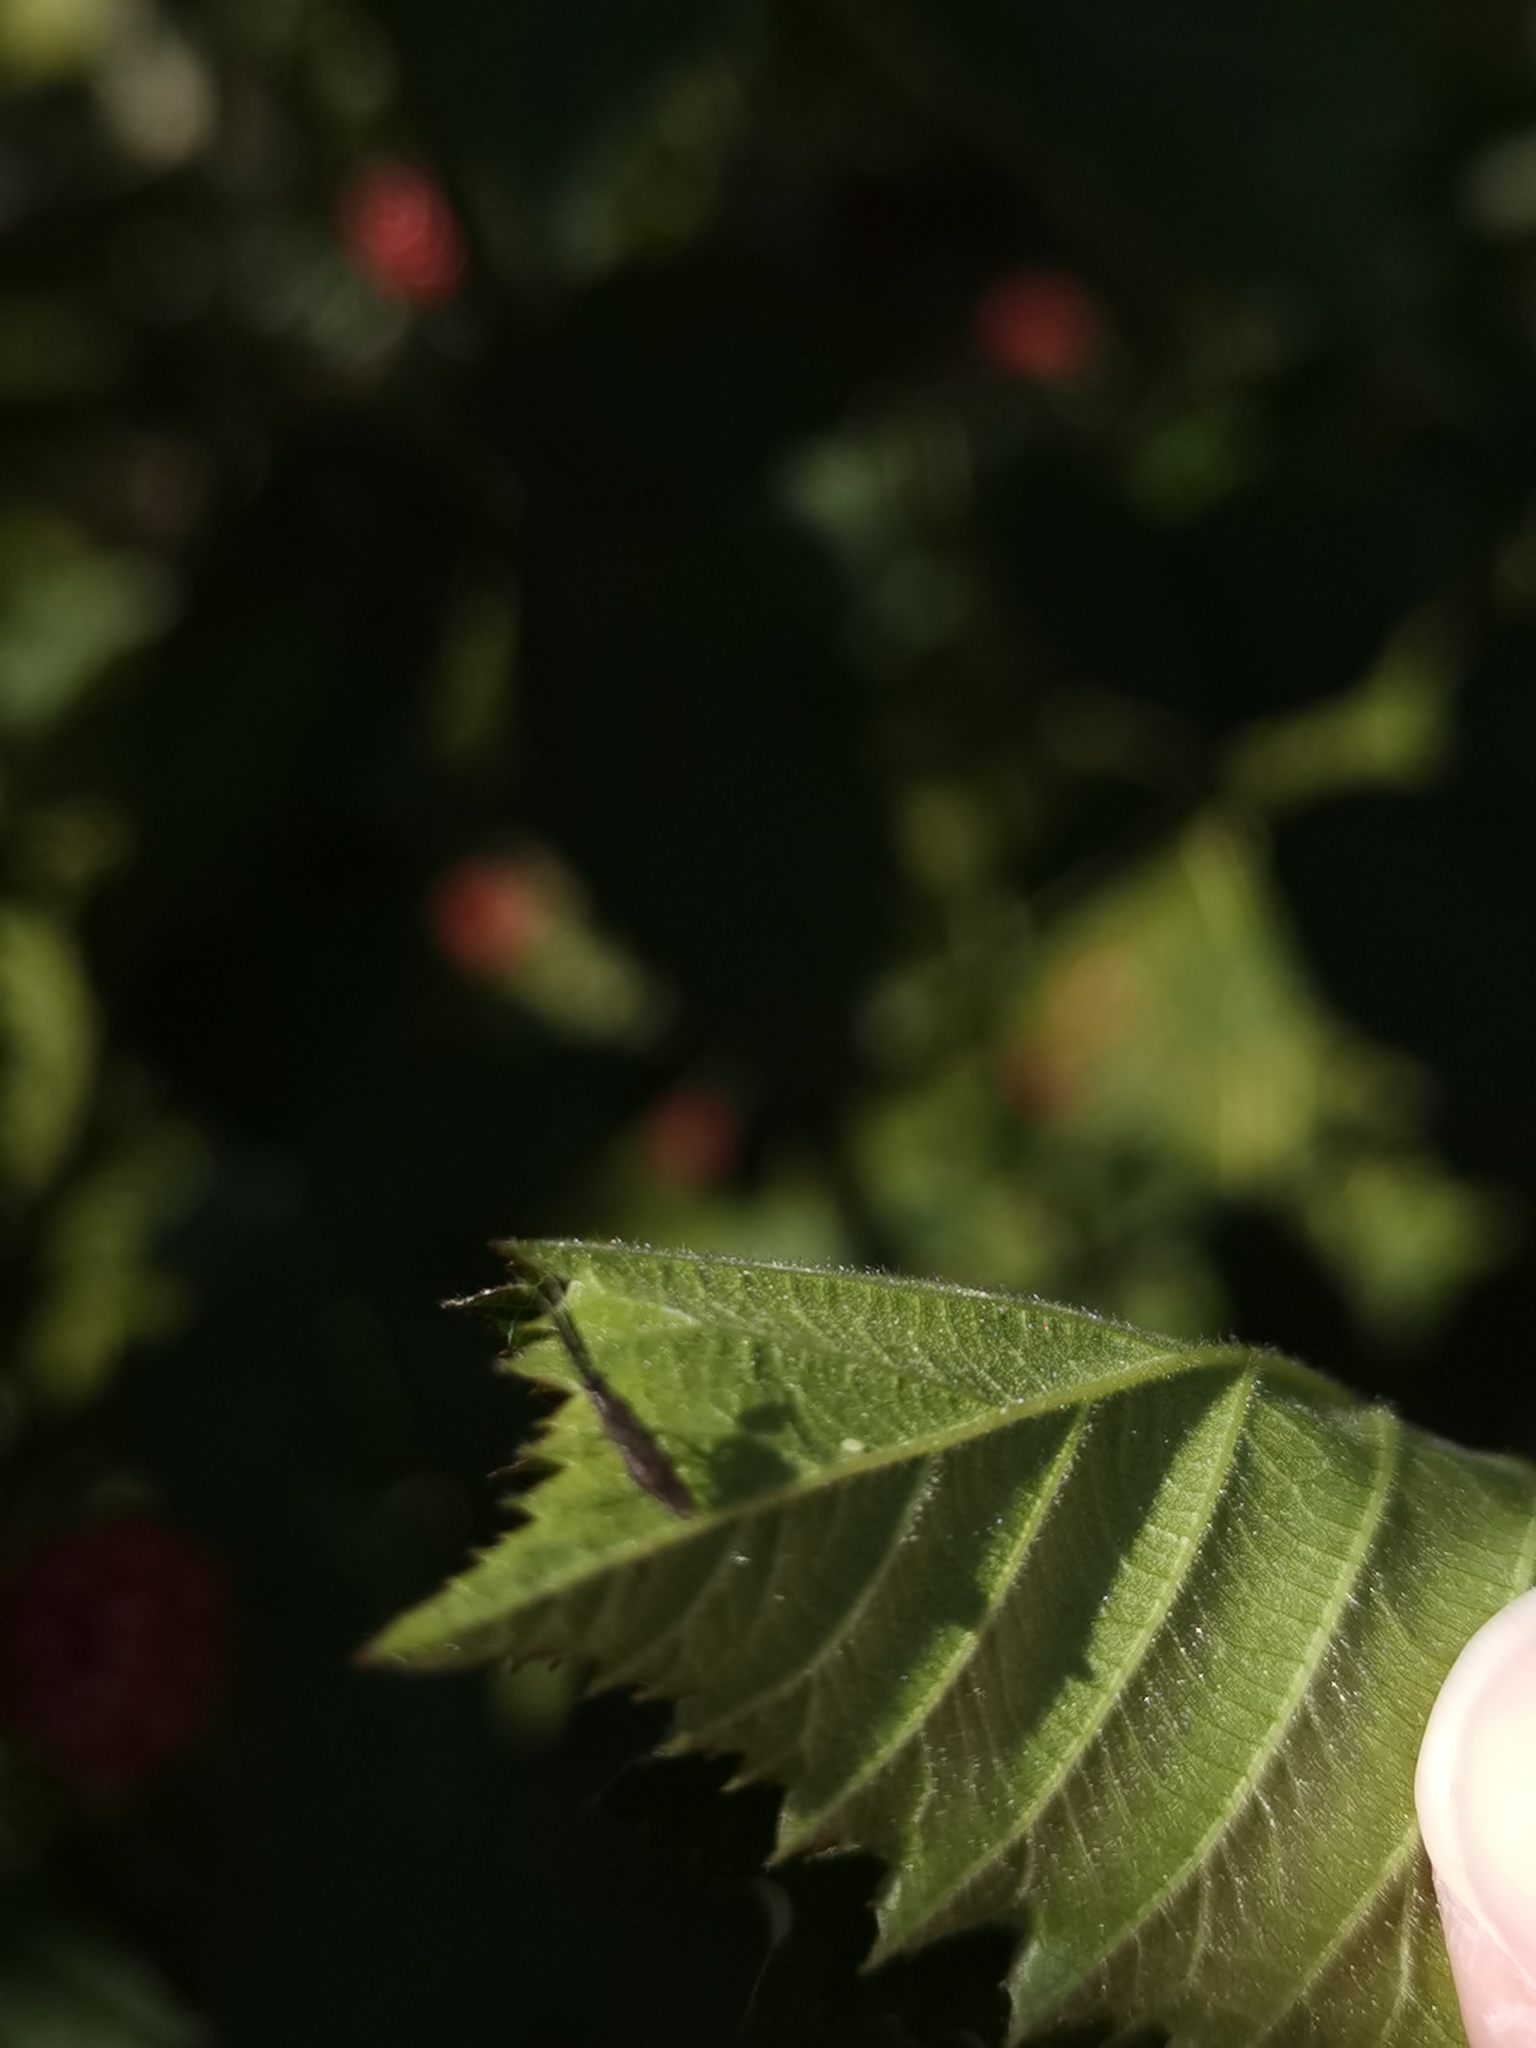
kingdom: Animalia
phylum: Arthropoda
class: Insecta
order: Hemiptera
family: Miridae
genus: Heterotoma
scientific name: Heterotoma planicornis
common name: Plant bug
